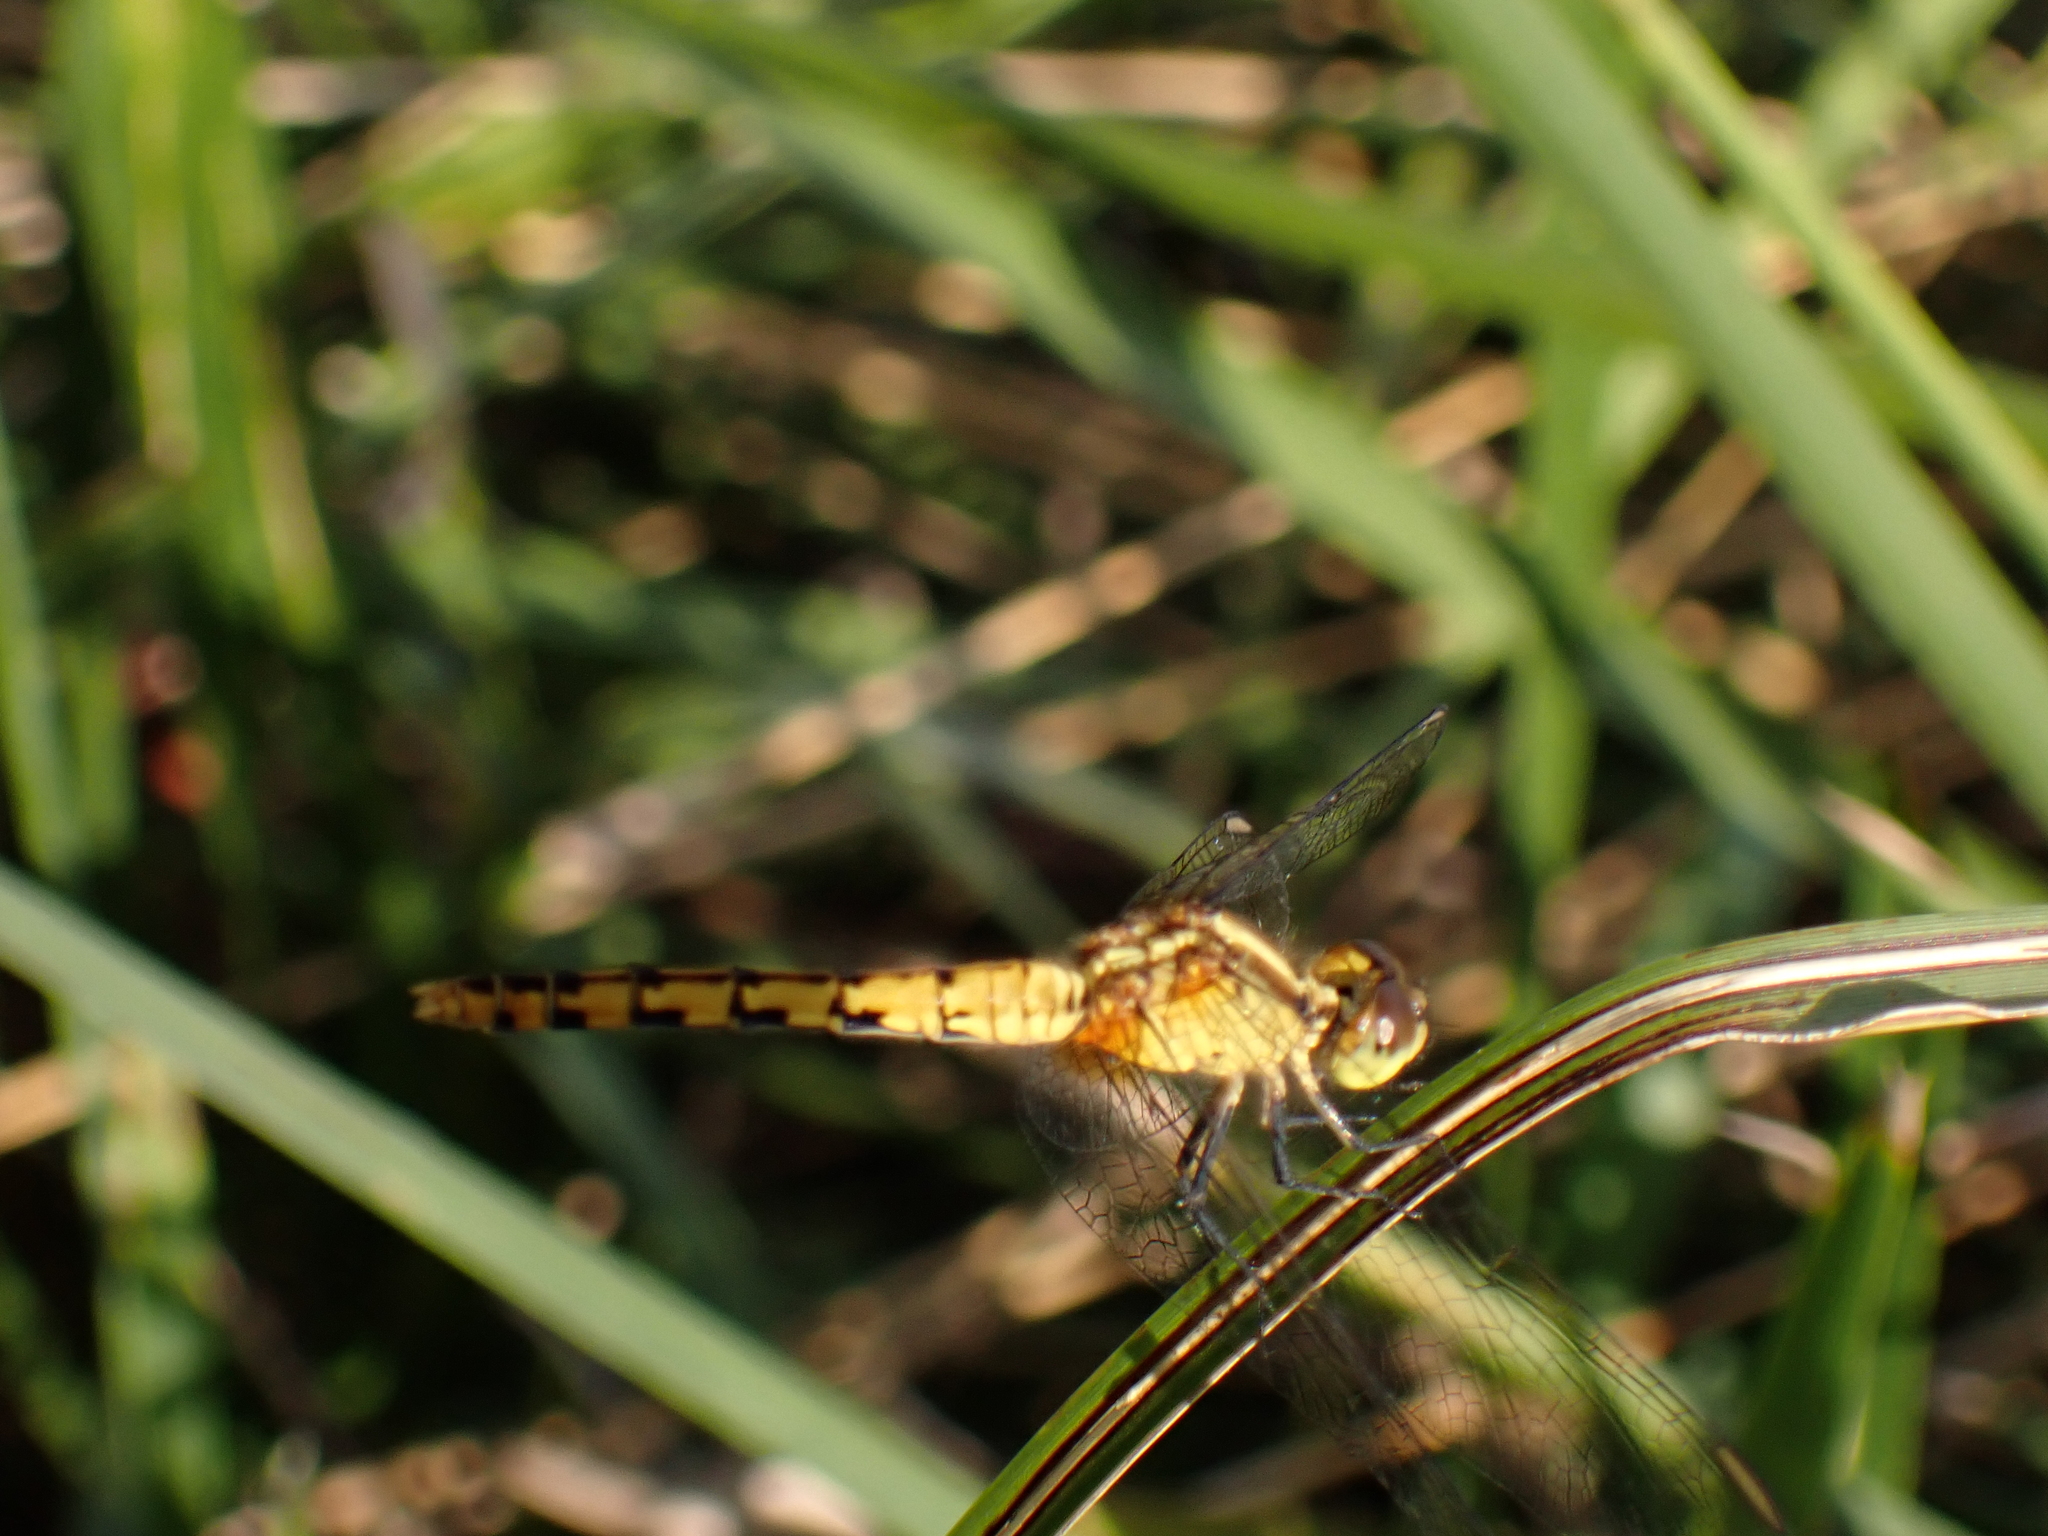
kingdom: Animalia
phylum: Arthropoda
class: Insecta
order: Odonata
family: Libellulidae
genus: Diplacodes
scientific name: Diplacodes melanopsis
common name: Black-faced percher
